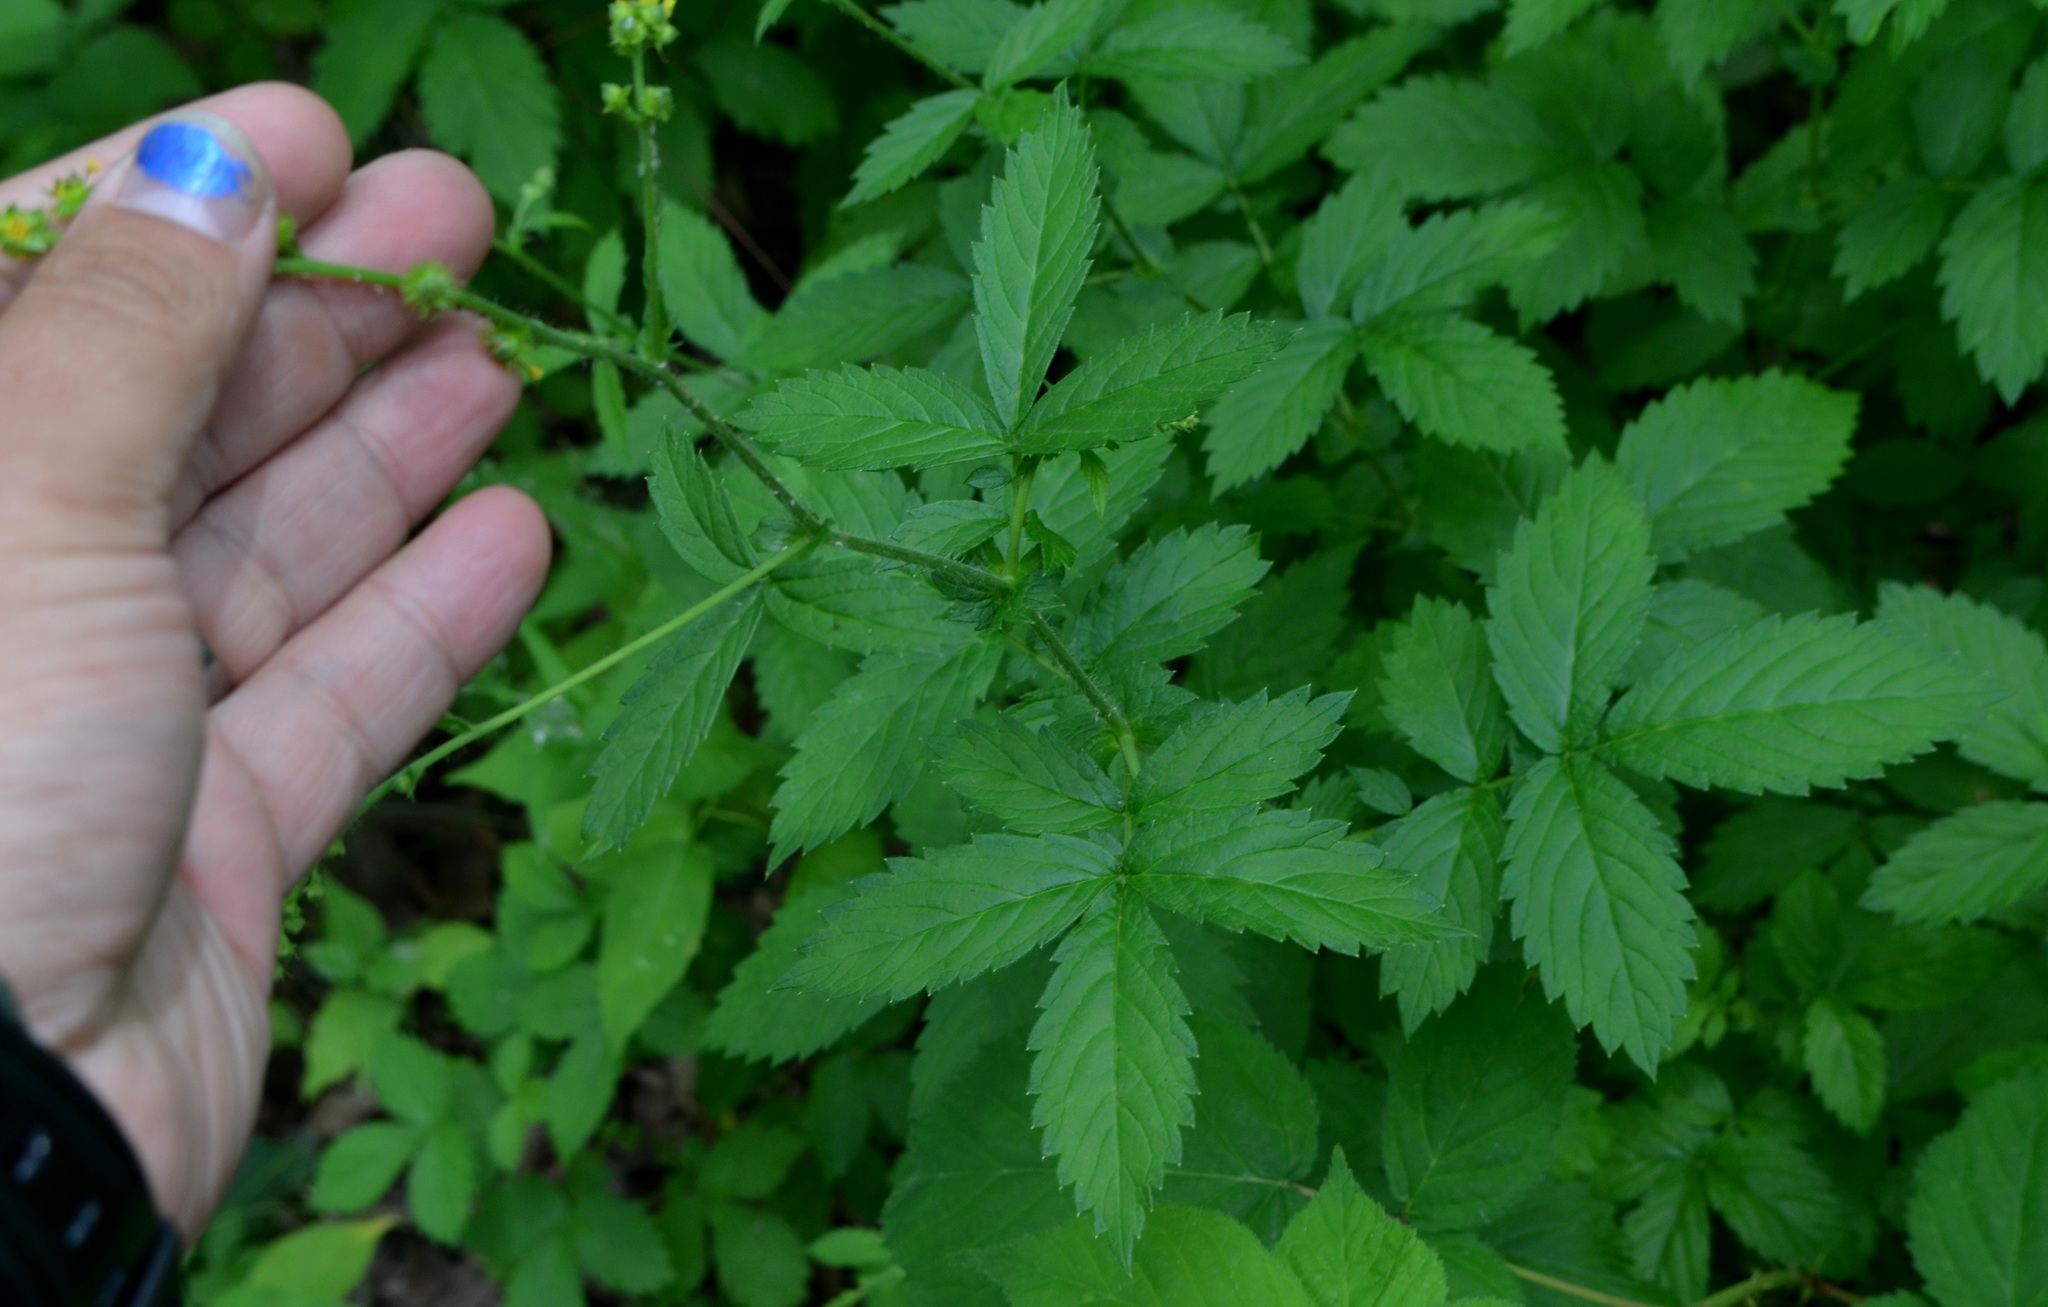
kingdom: Plantae
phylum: Tracheophyta
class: Magnoliopsida
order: Rosales
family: Rosaceae
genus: Agrimonia
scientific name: Agrimonia rostellata
